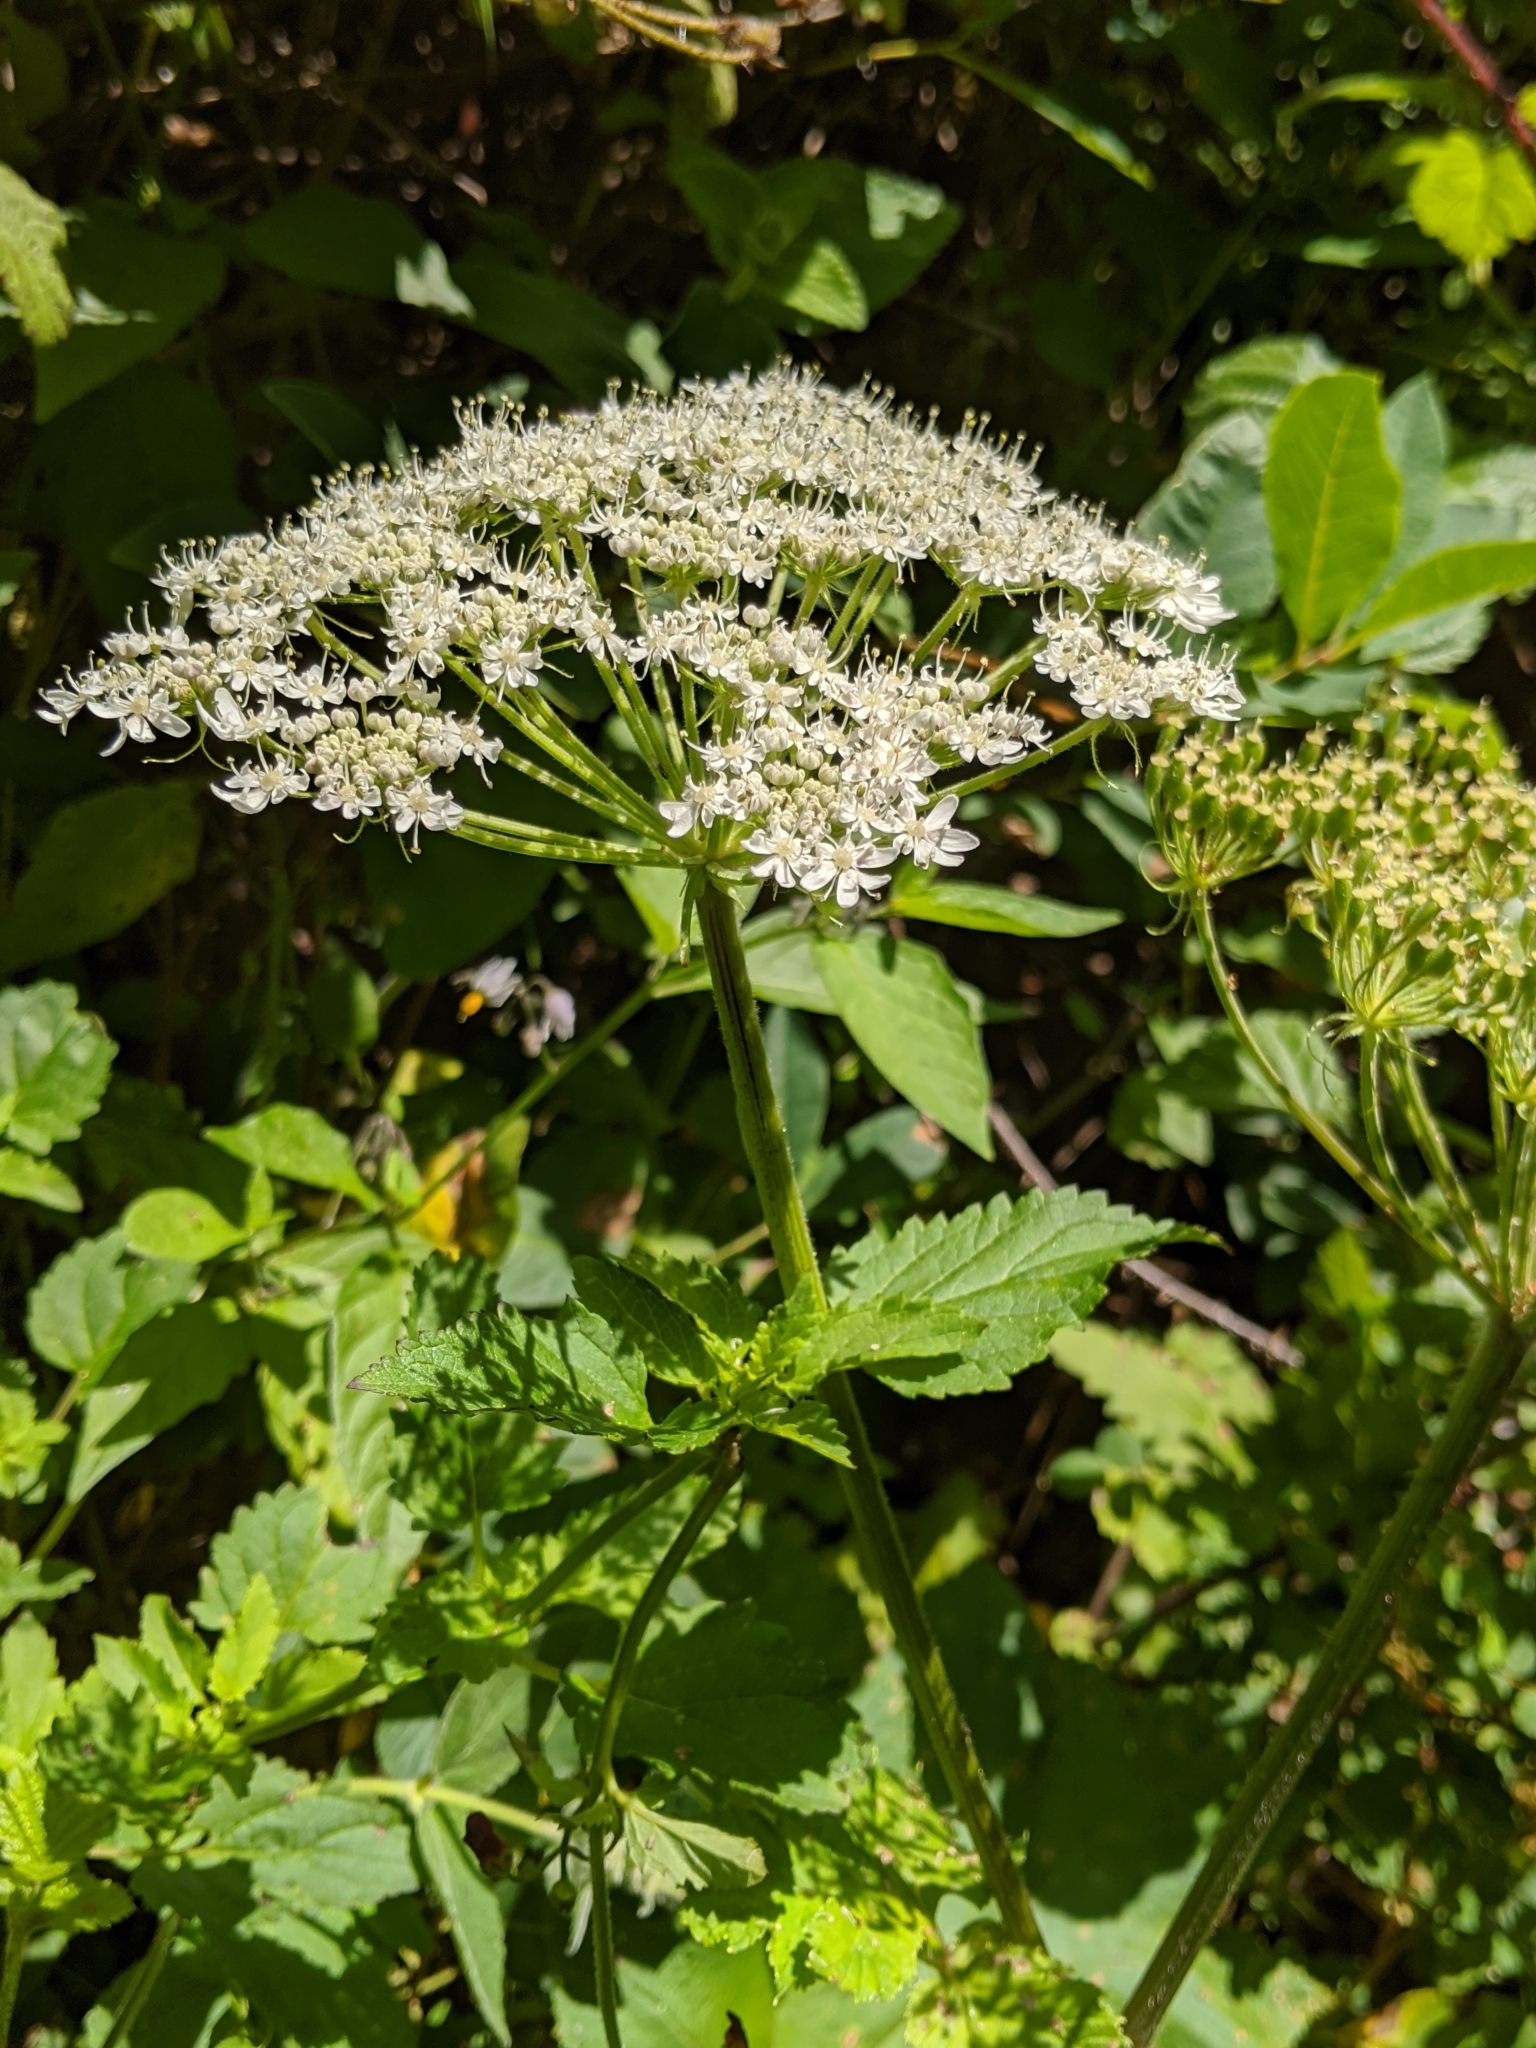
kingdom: Plantae
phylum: Tracheophyta
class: Magnoliopsida
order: Apiales
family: Apiaceae
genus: Heracleum
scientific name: Heracleum maximum
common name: American cow parsnip
